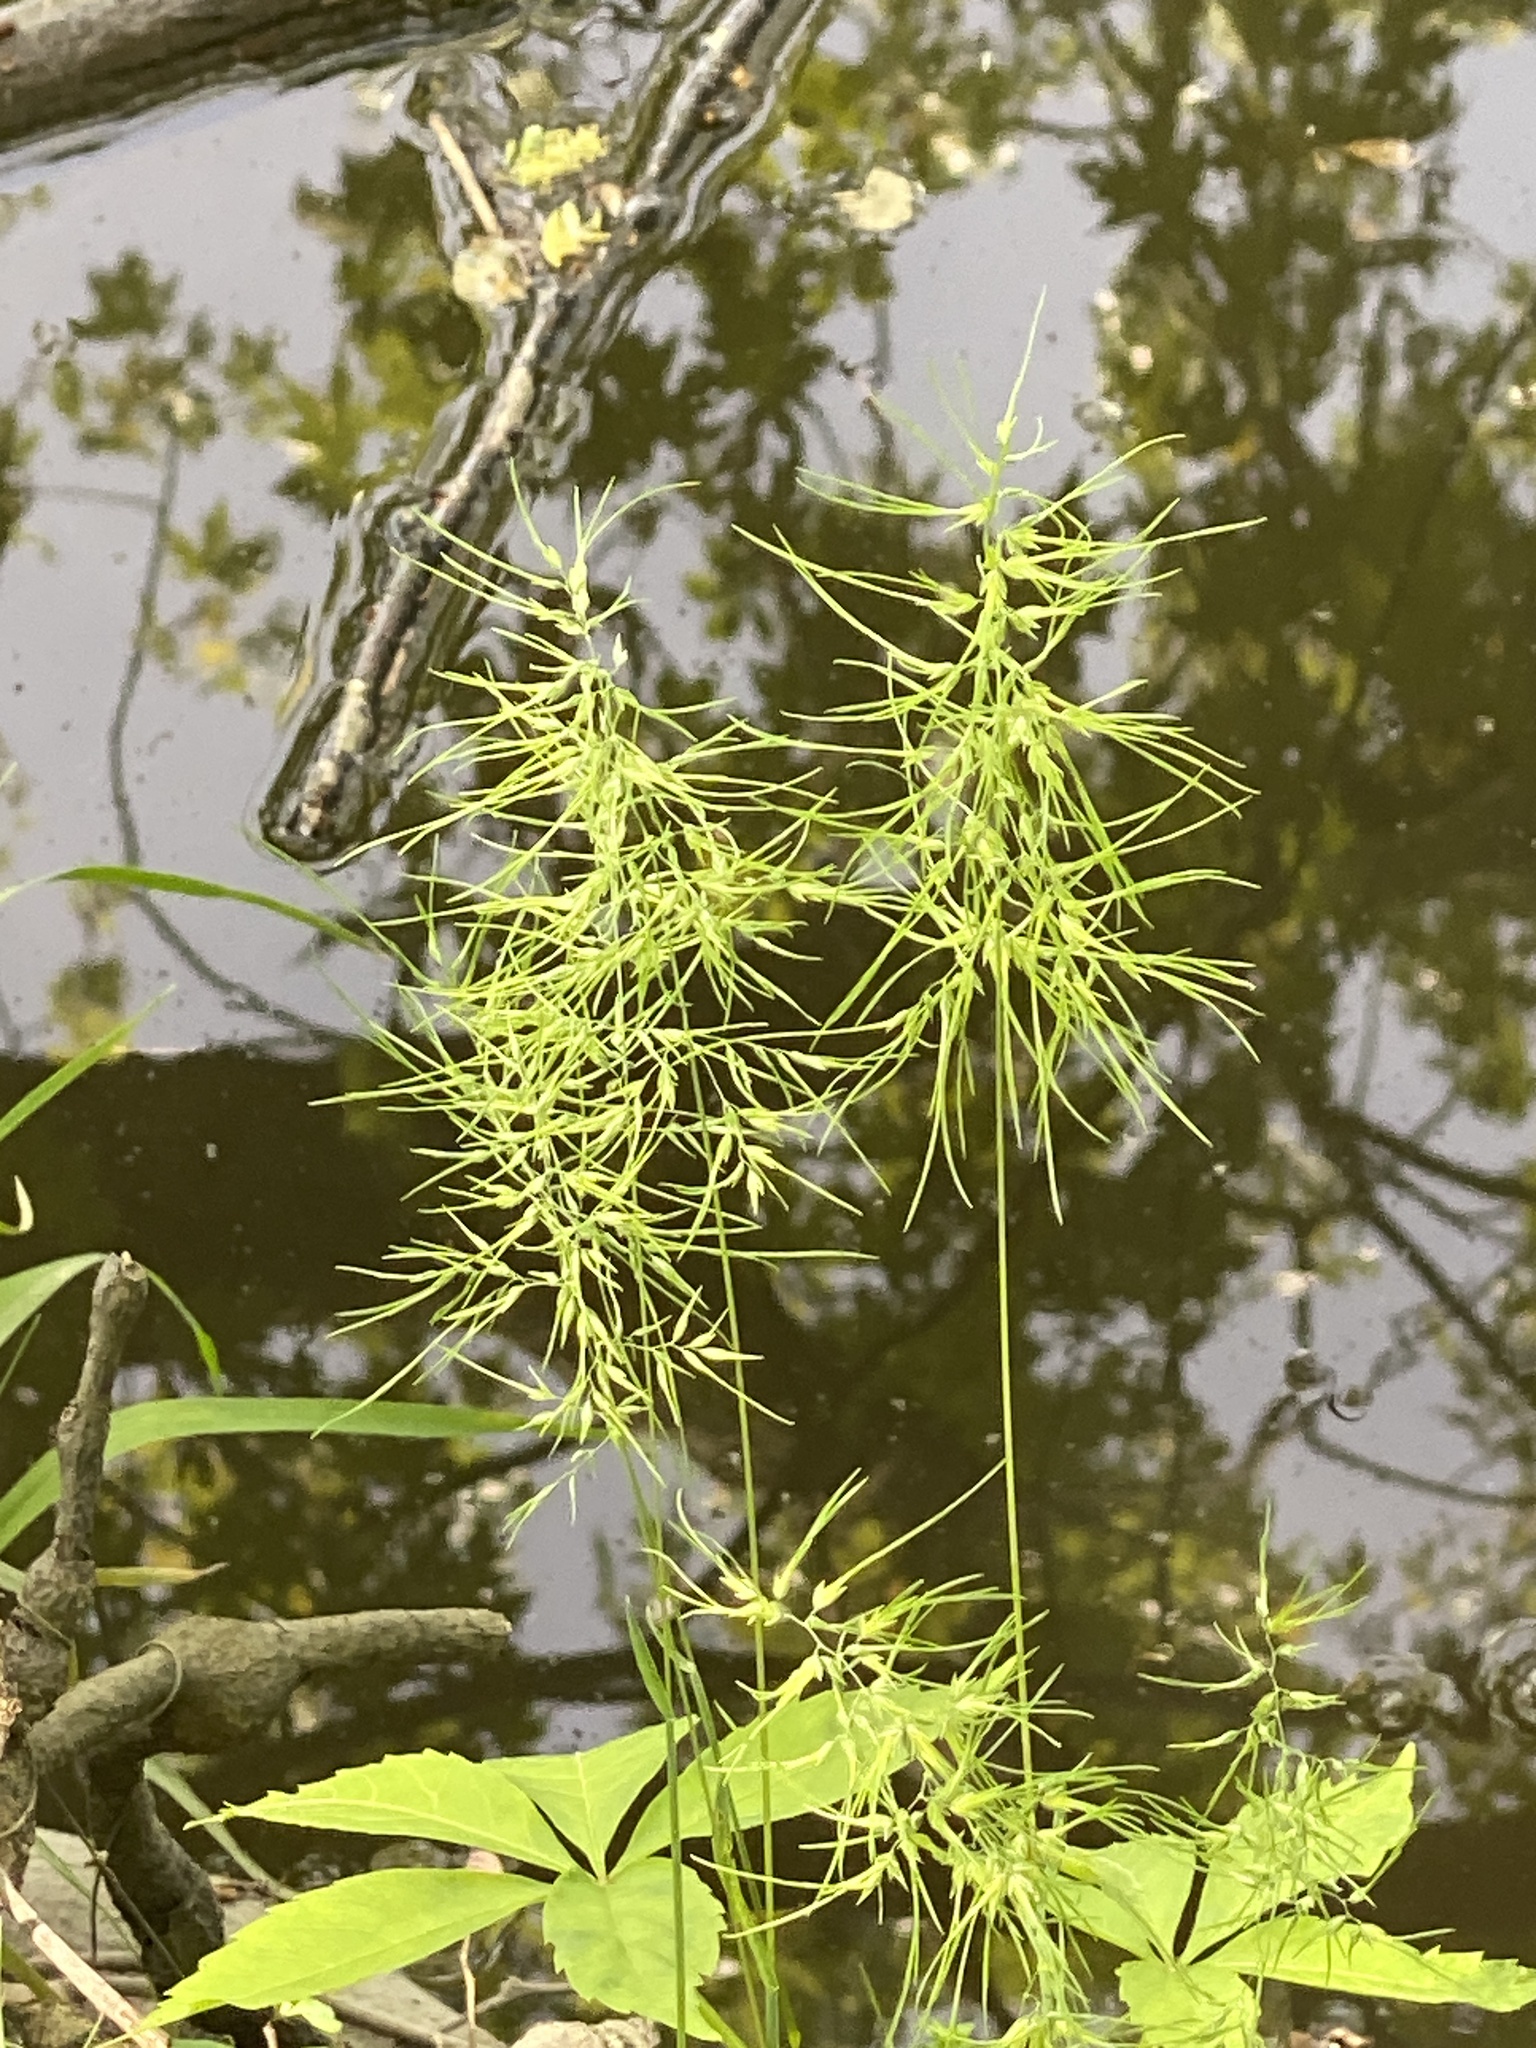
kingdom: Plantae
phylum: Tracheophyta
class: Liliopsida
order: Poales
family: Poaceae
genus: Poa
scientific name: Poa bulbosa
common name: Bulbous bluegrass
